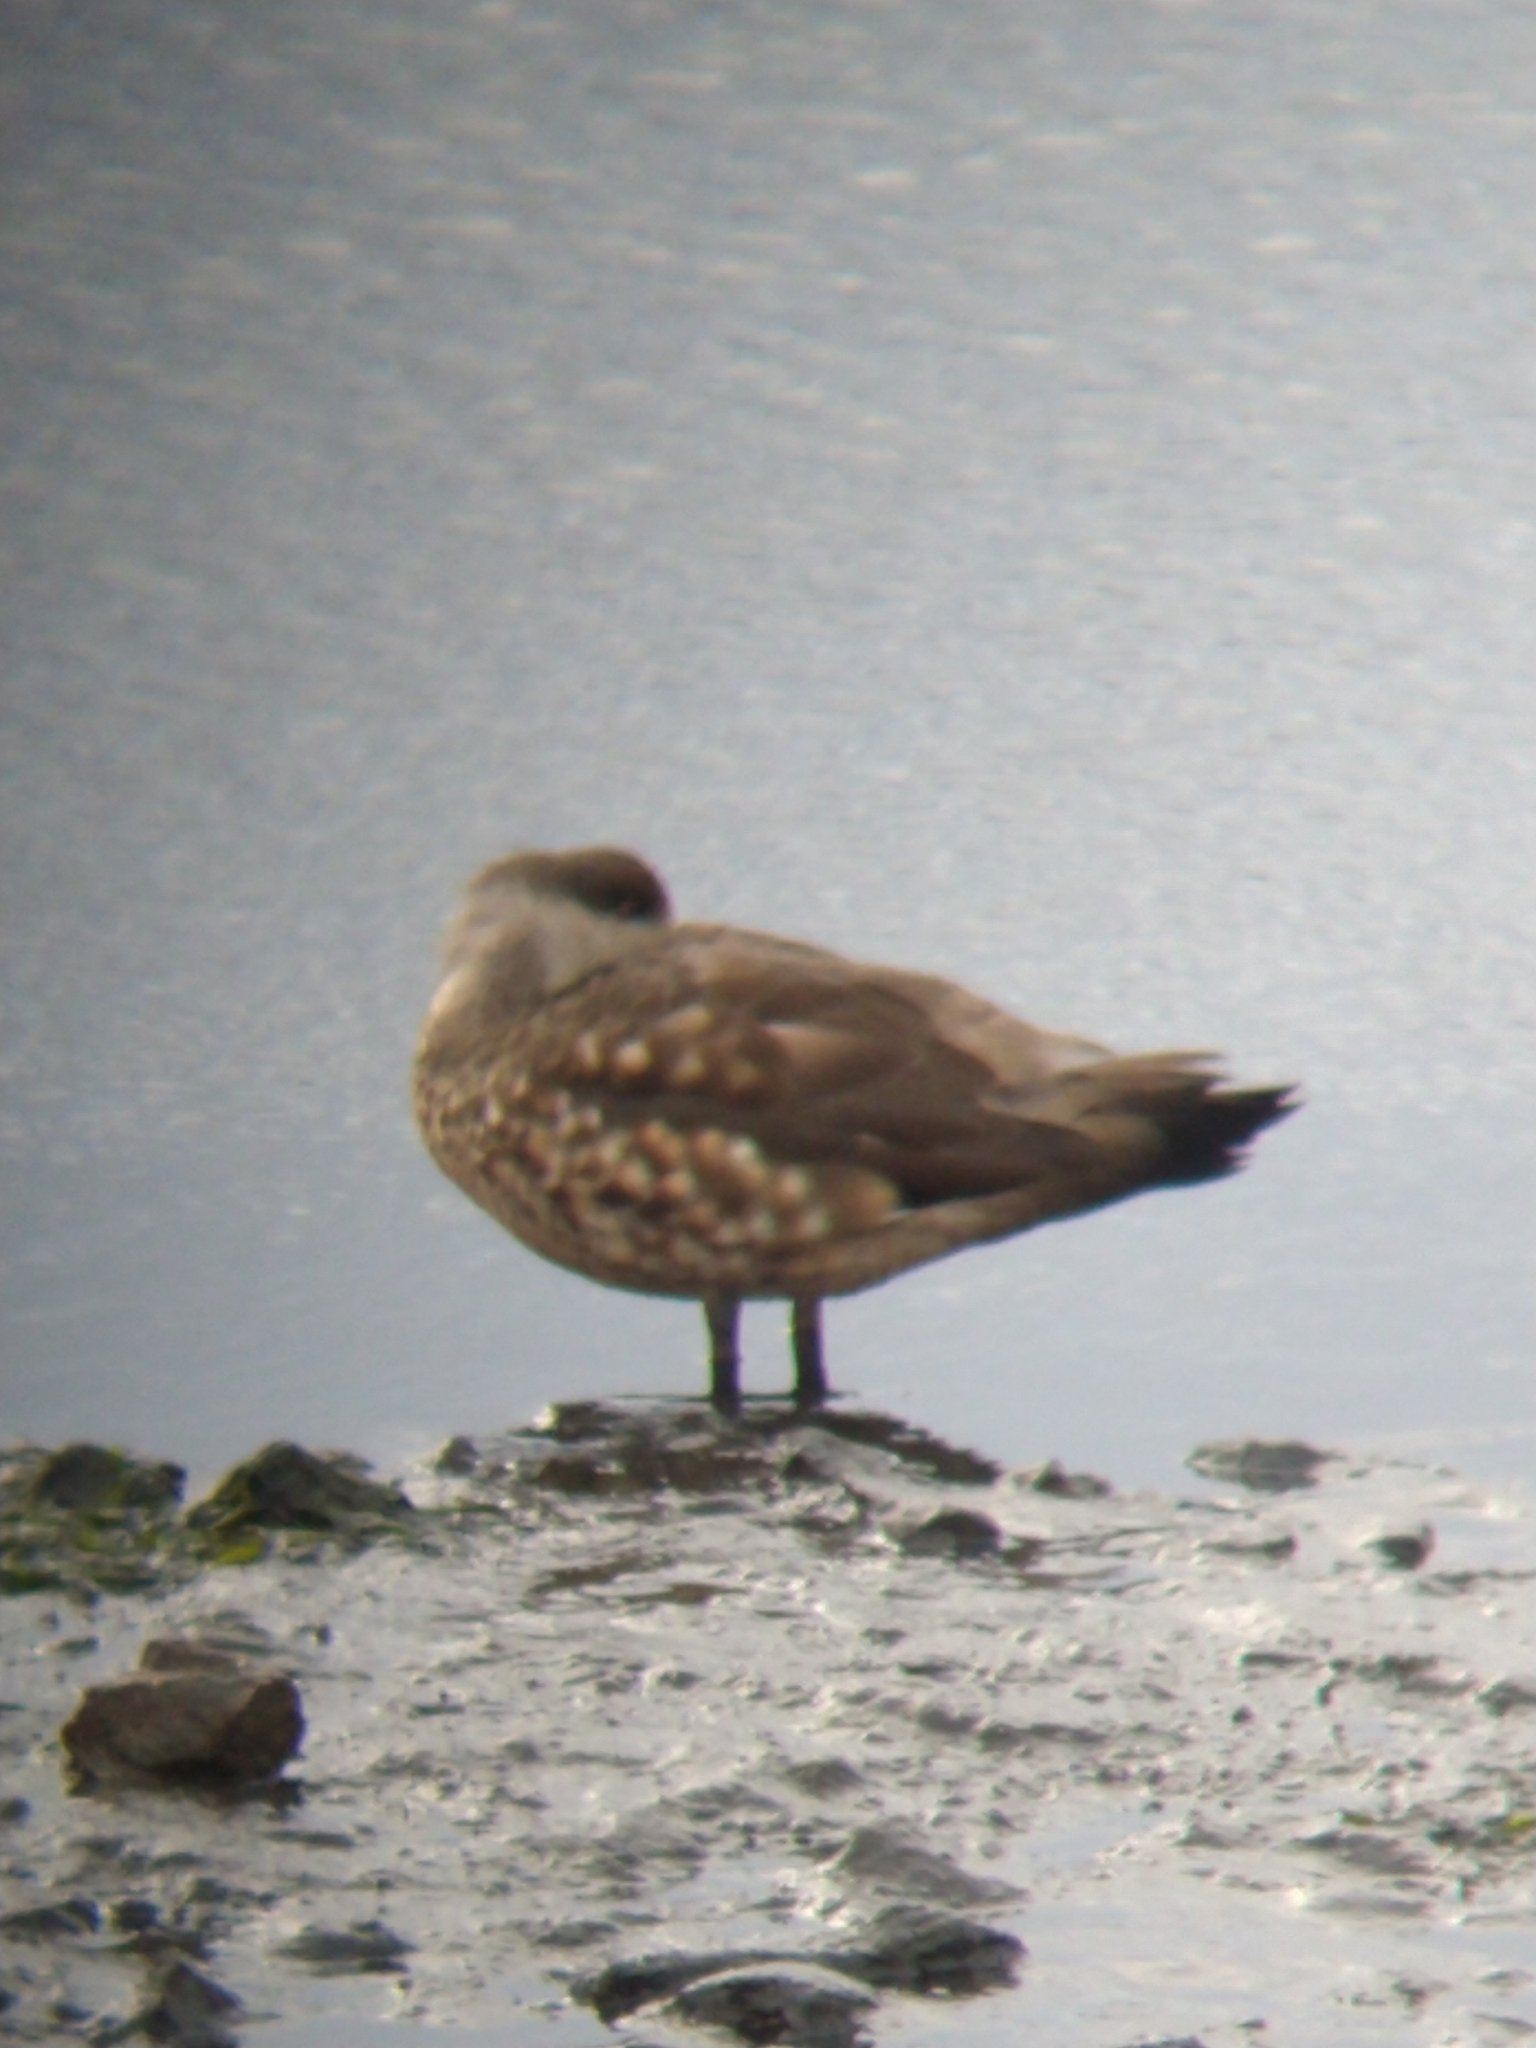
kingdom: Animalia
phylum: Chordata
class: Aves
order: Anseriformes
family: Anatidae
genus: Lophonetta
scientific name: Lophonetta specularioides
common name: Crested duck
